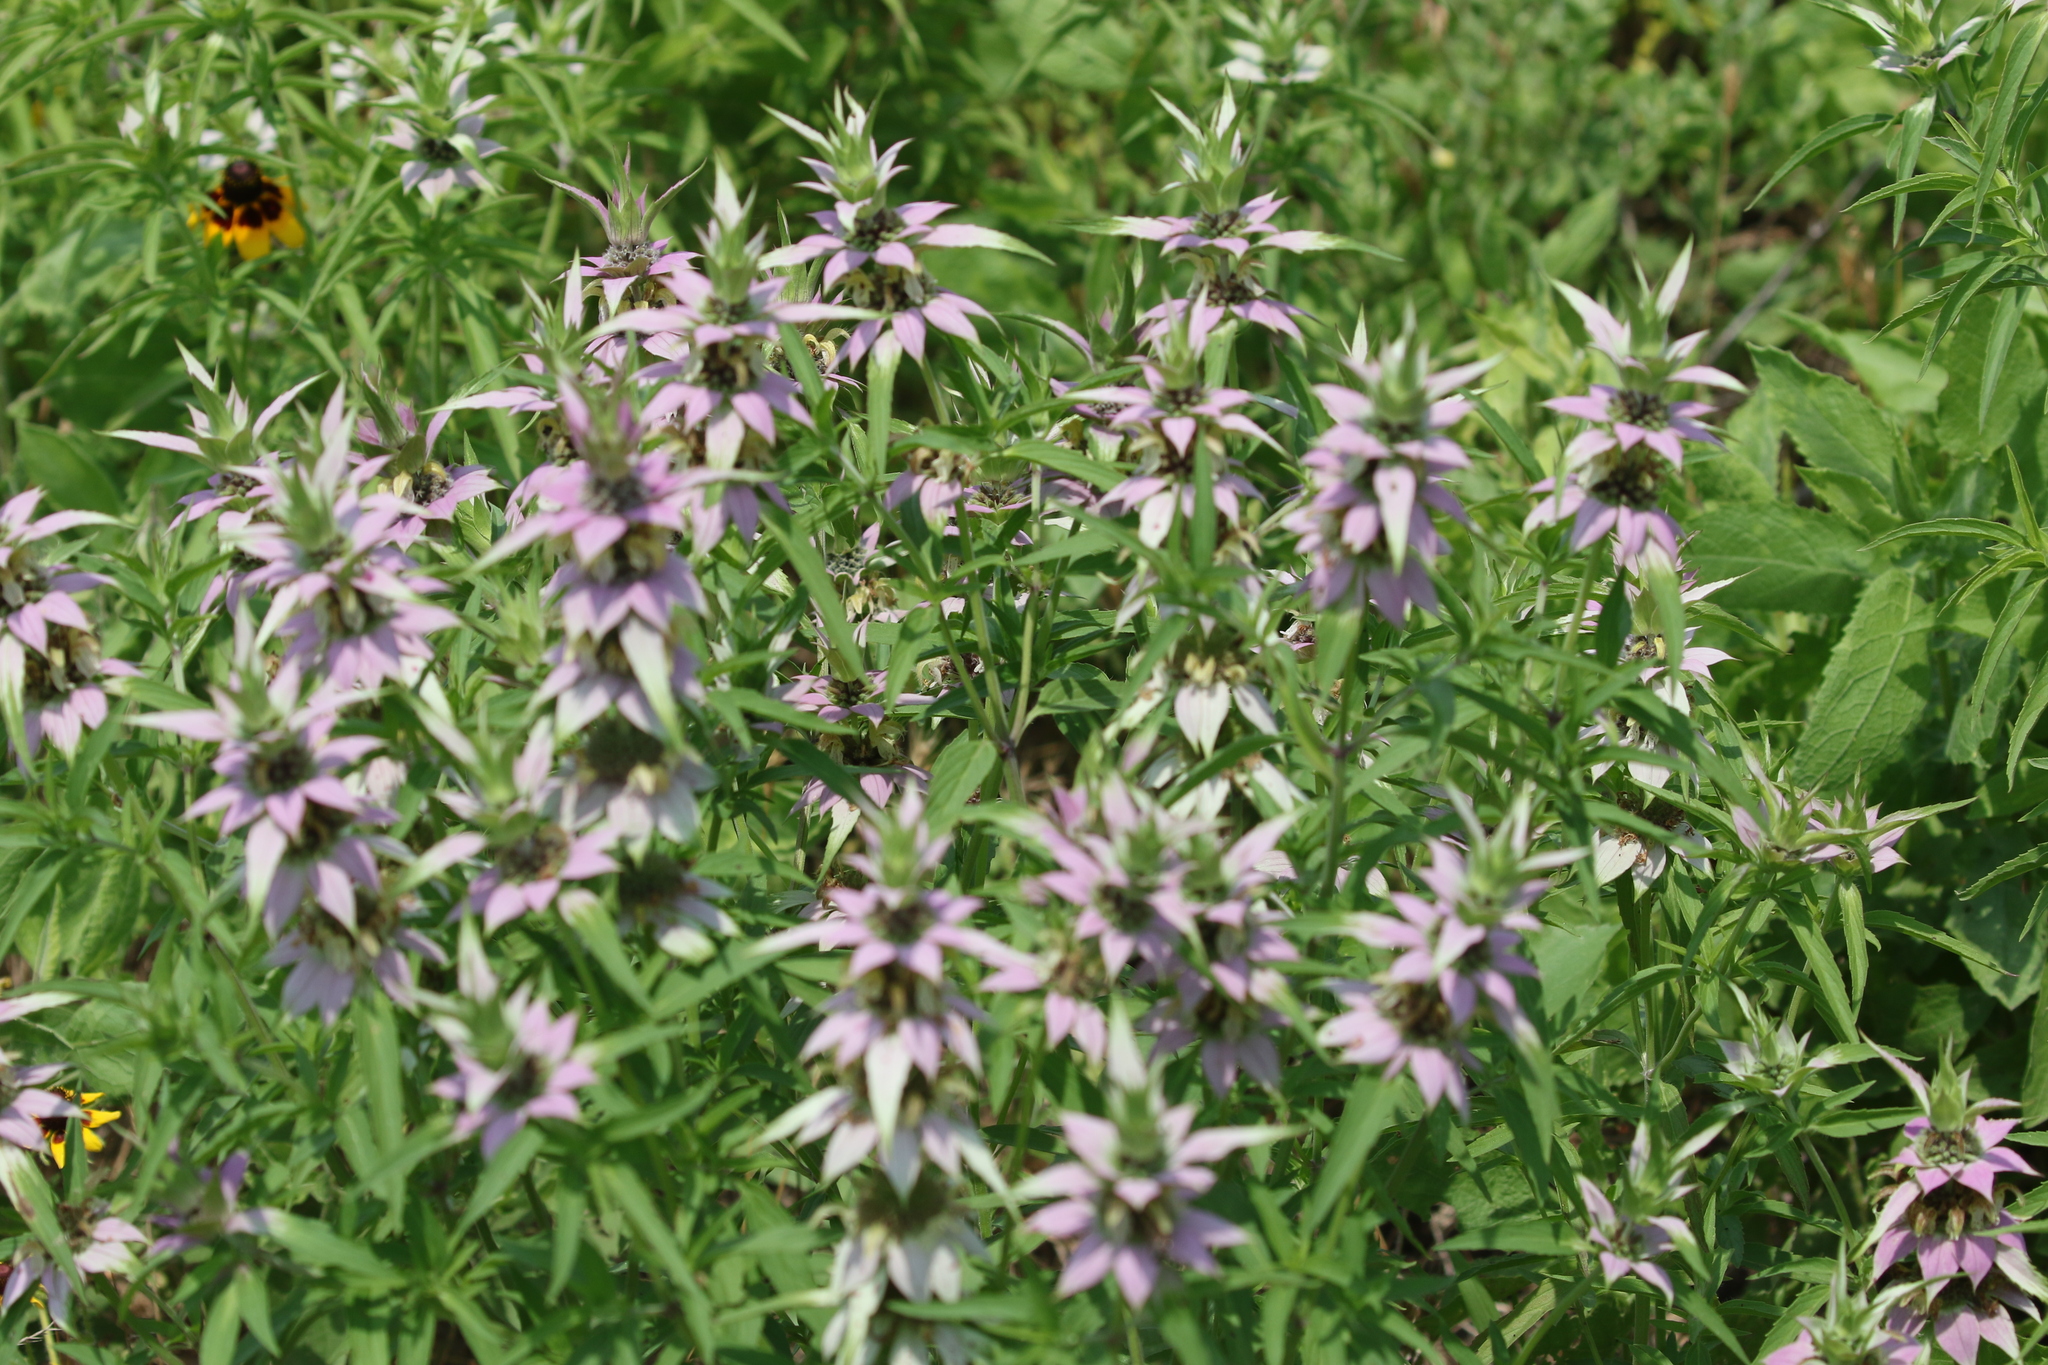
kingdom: Plantae
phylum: Tracheophyta
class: Magnoliopsida
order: Lamiales
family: Lamiaceae
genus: Monarda
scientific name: Monarda punctata
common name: Dotted monarda
